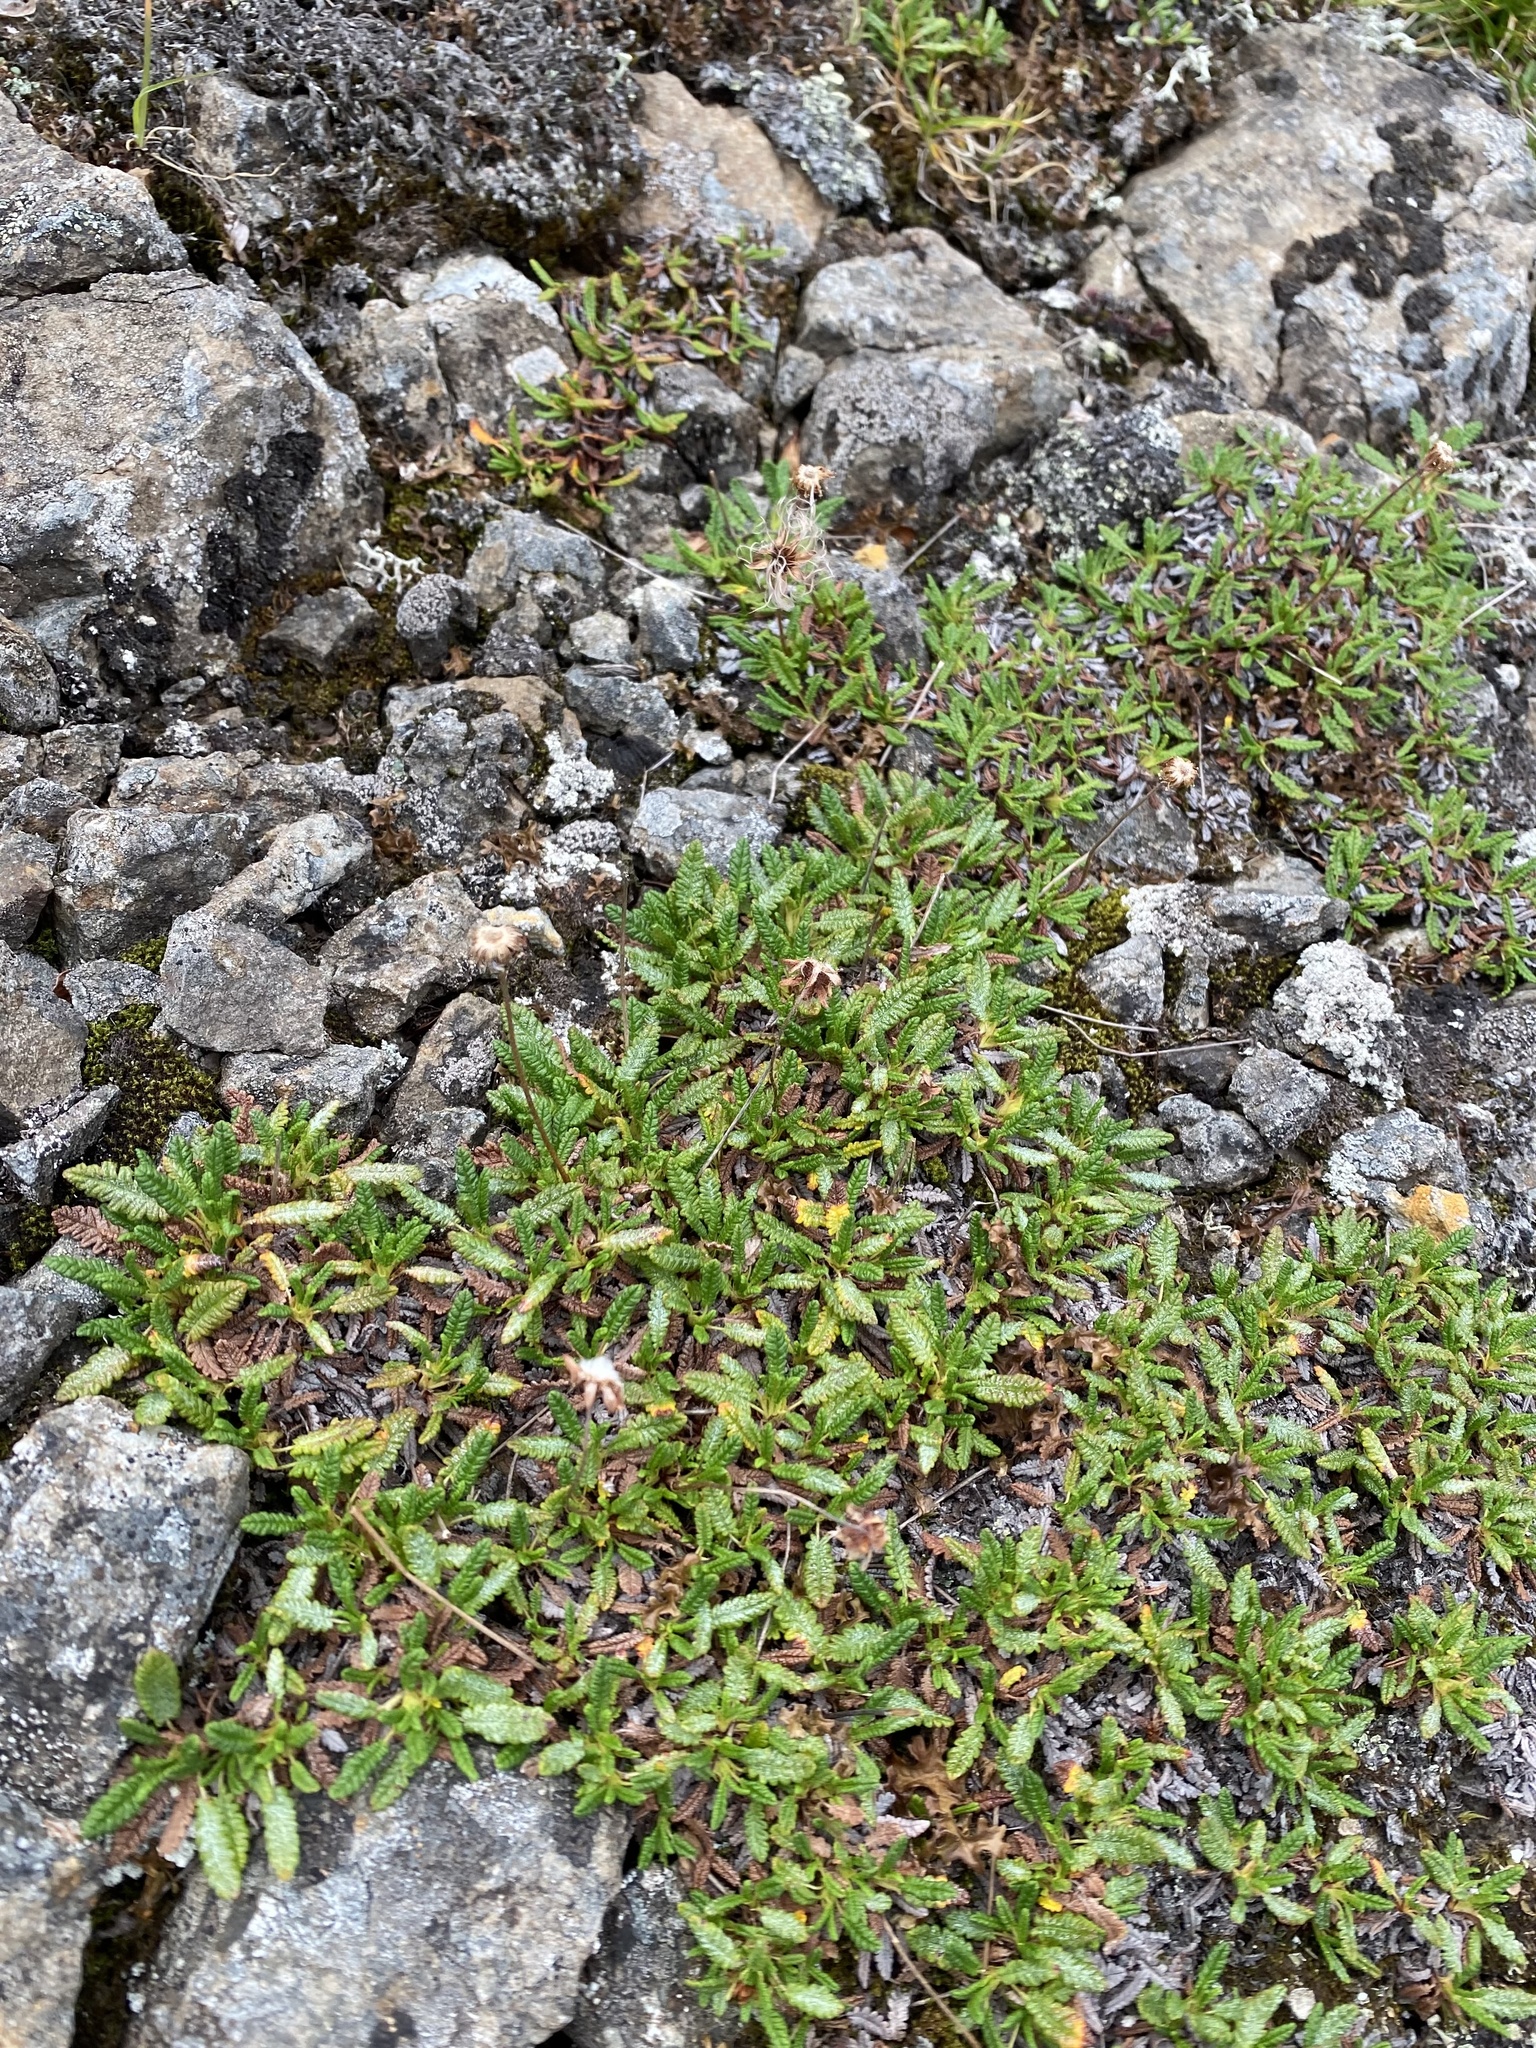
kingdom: Plantae
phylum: Tracheophyta
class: Magnoliopsida
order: Rosales
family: Rosaceae
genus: Dryas
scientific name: Dryas octopetala
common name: Eight-petal mountain-avens
